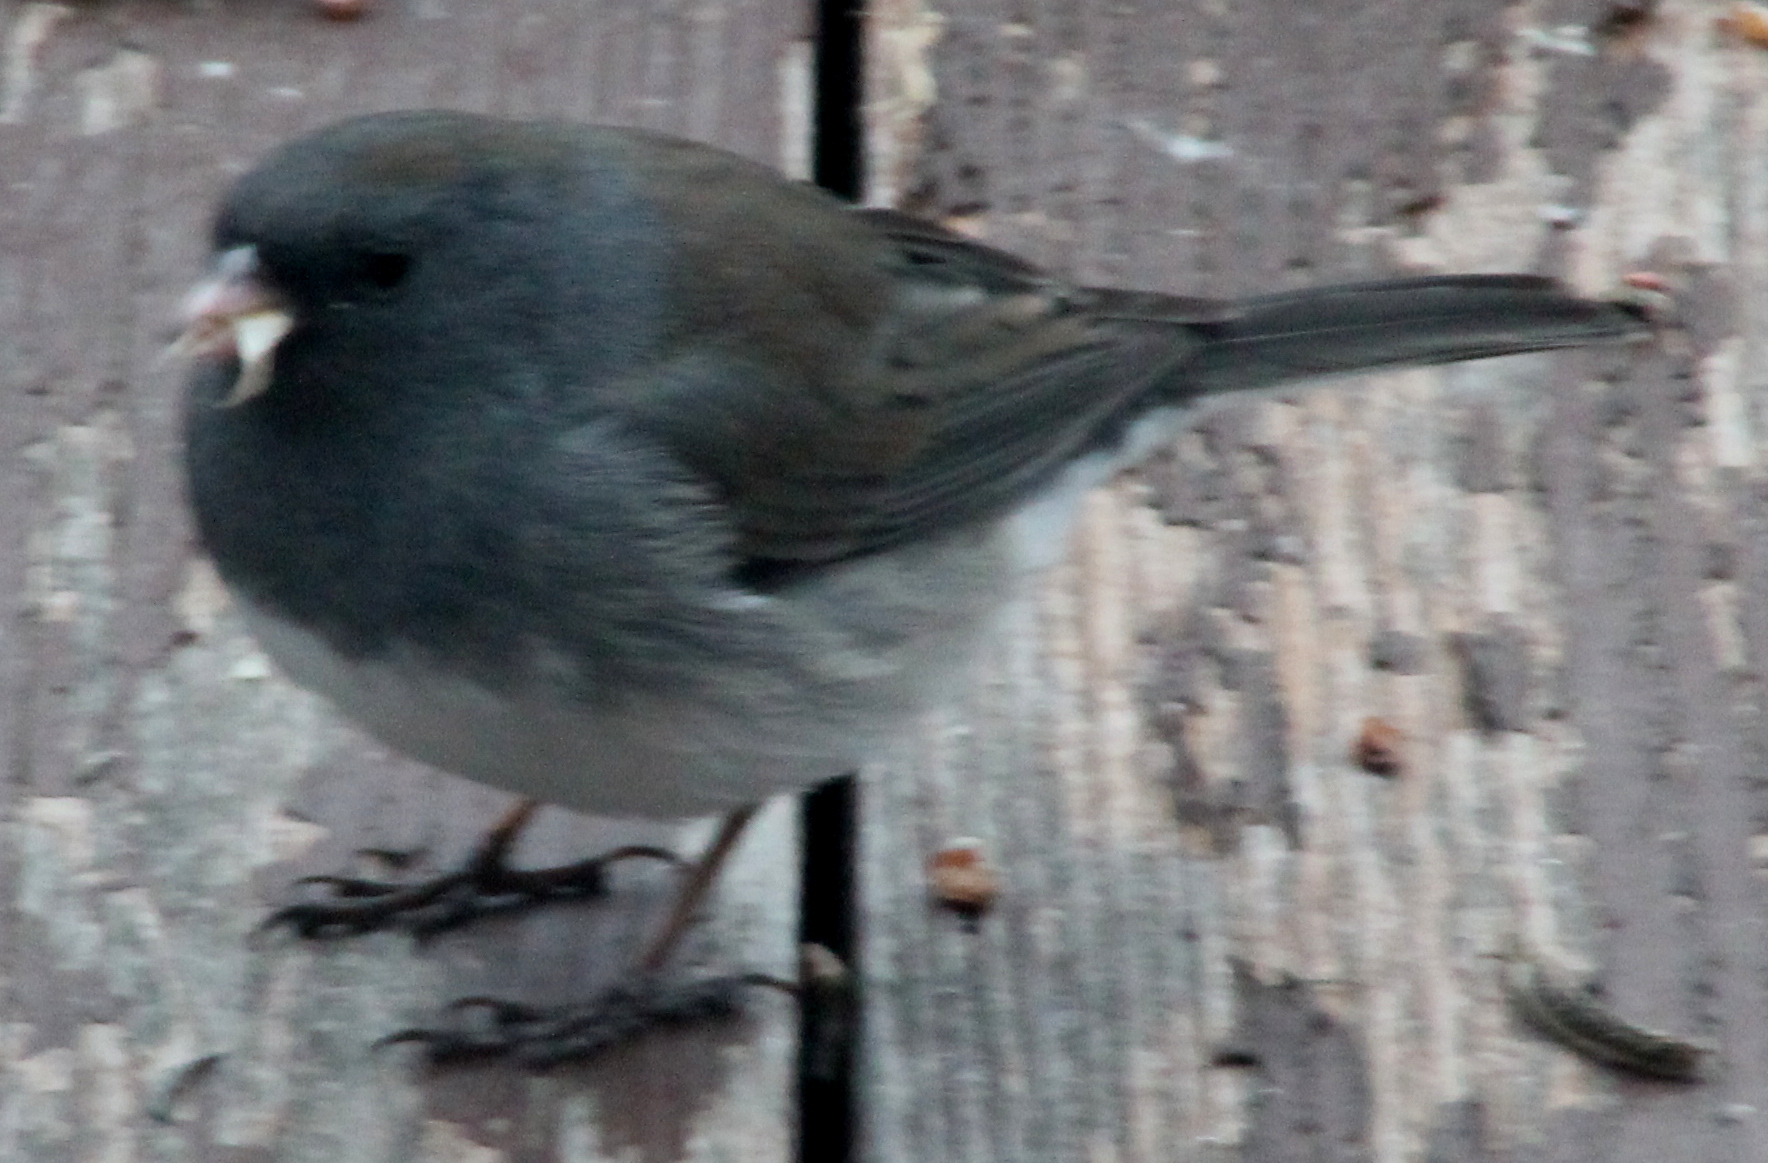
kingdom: Animalia
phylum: Chordata
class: Aves
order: Passeriformes
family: Passerellidae
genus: Junco
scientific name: Junco hyemalis
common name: Dark-eyed junco
